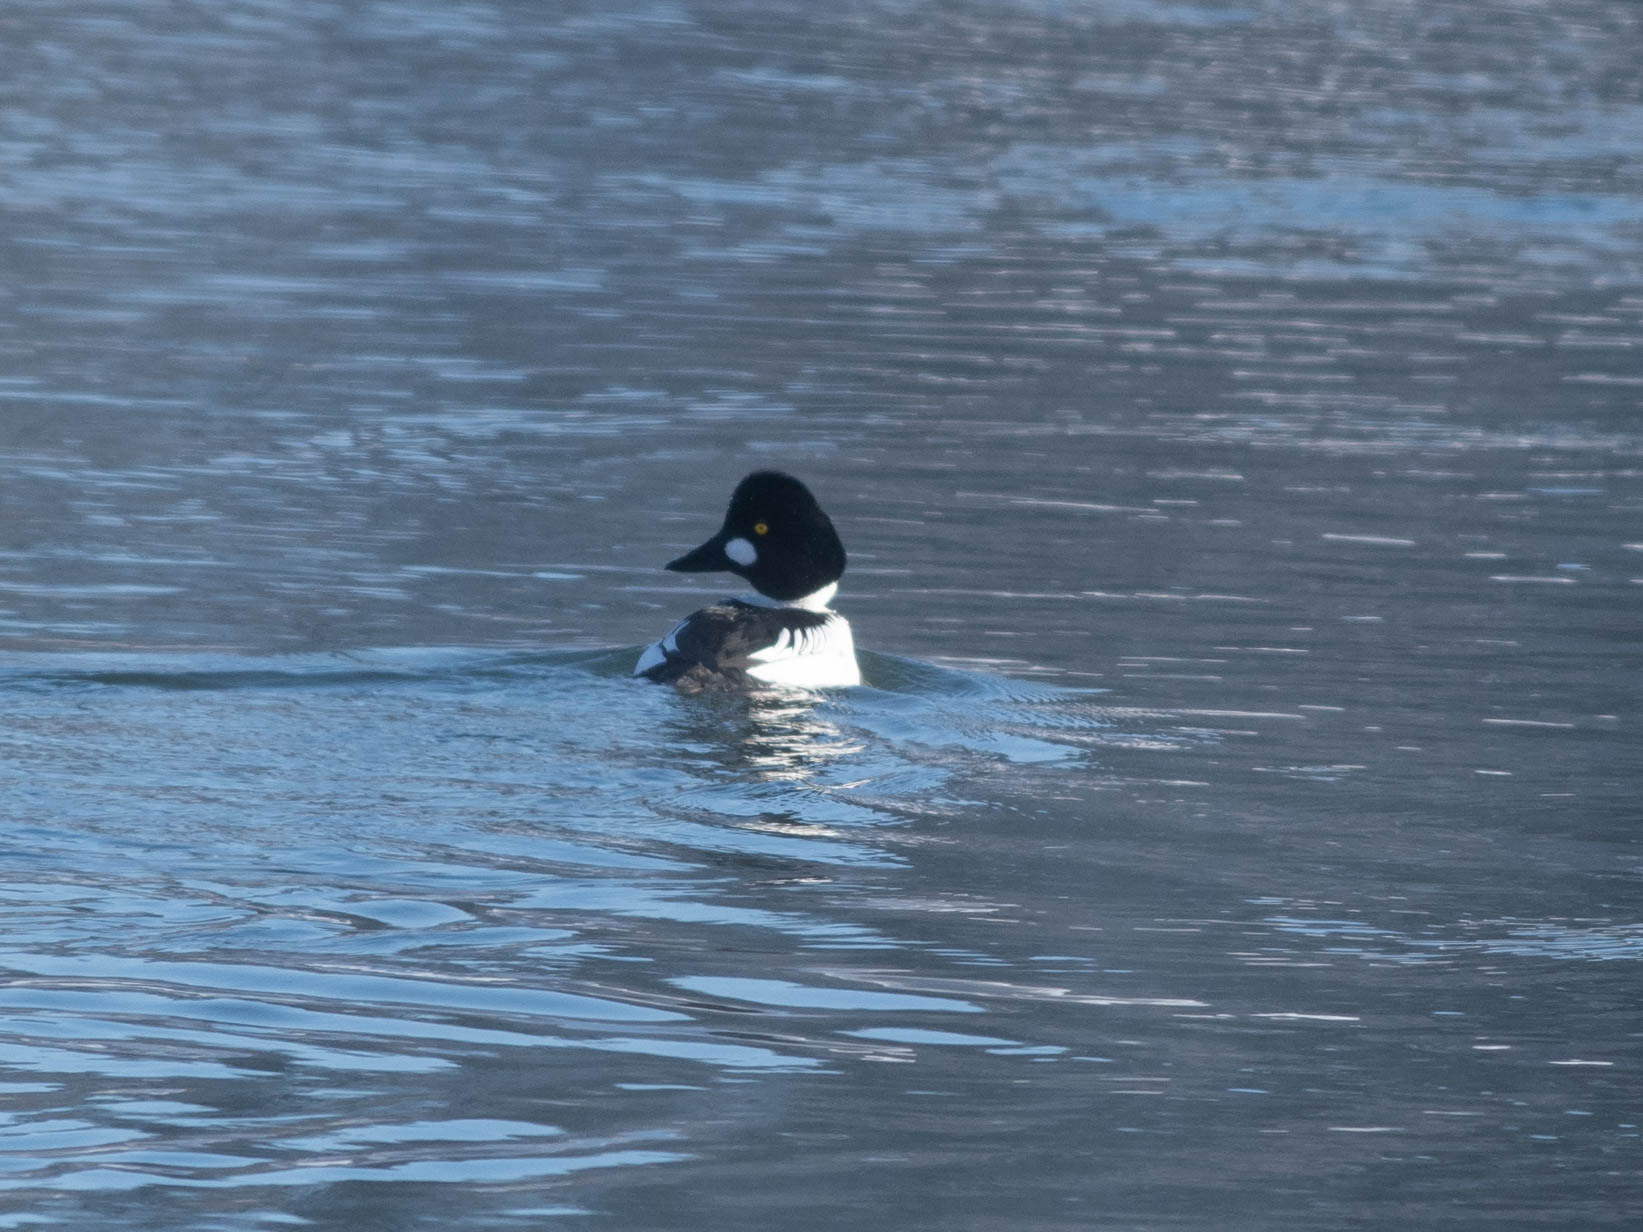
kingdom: Animalia
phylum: Chordata
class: Aves
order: Anseriformes
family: Anatidae
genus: Bucephala
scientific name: Bucephala clangula
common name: Common goldeneye
